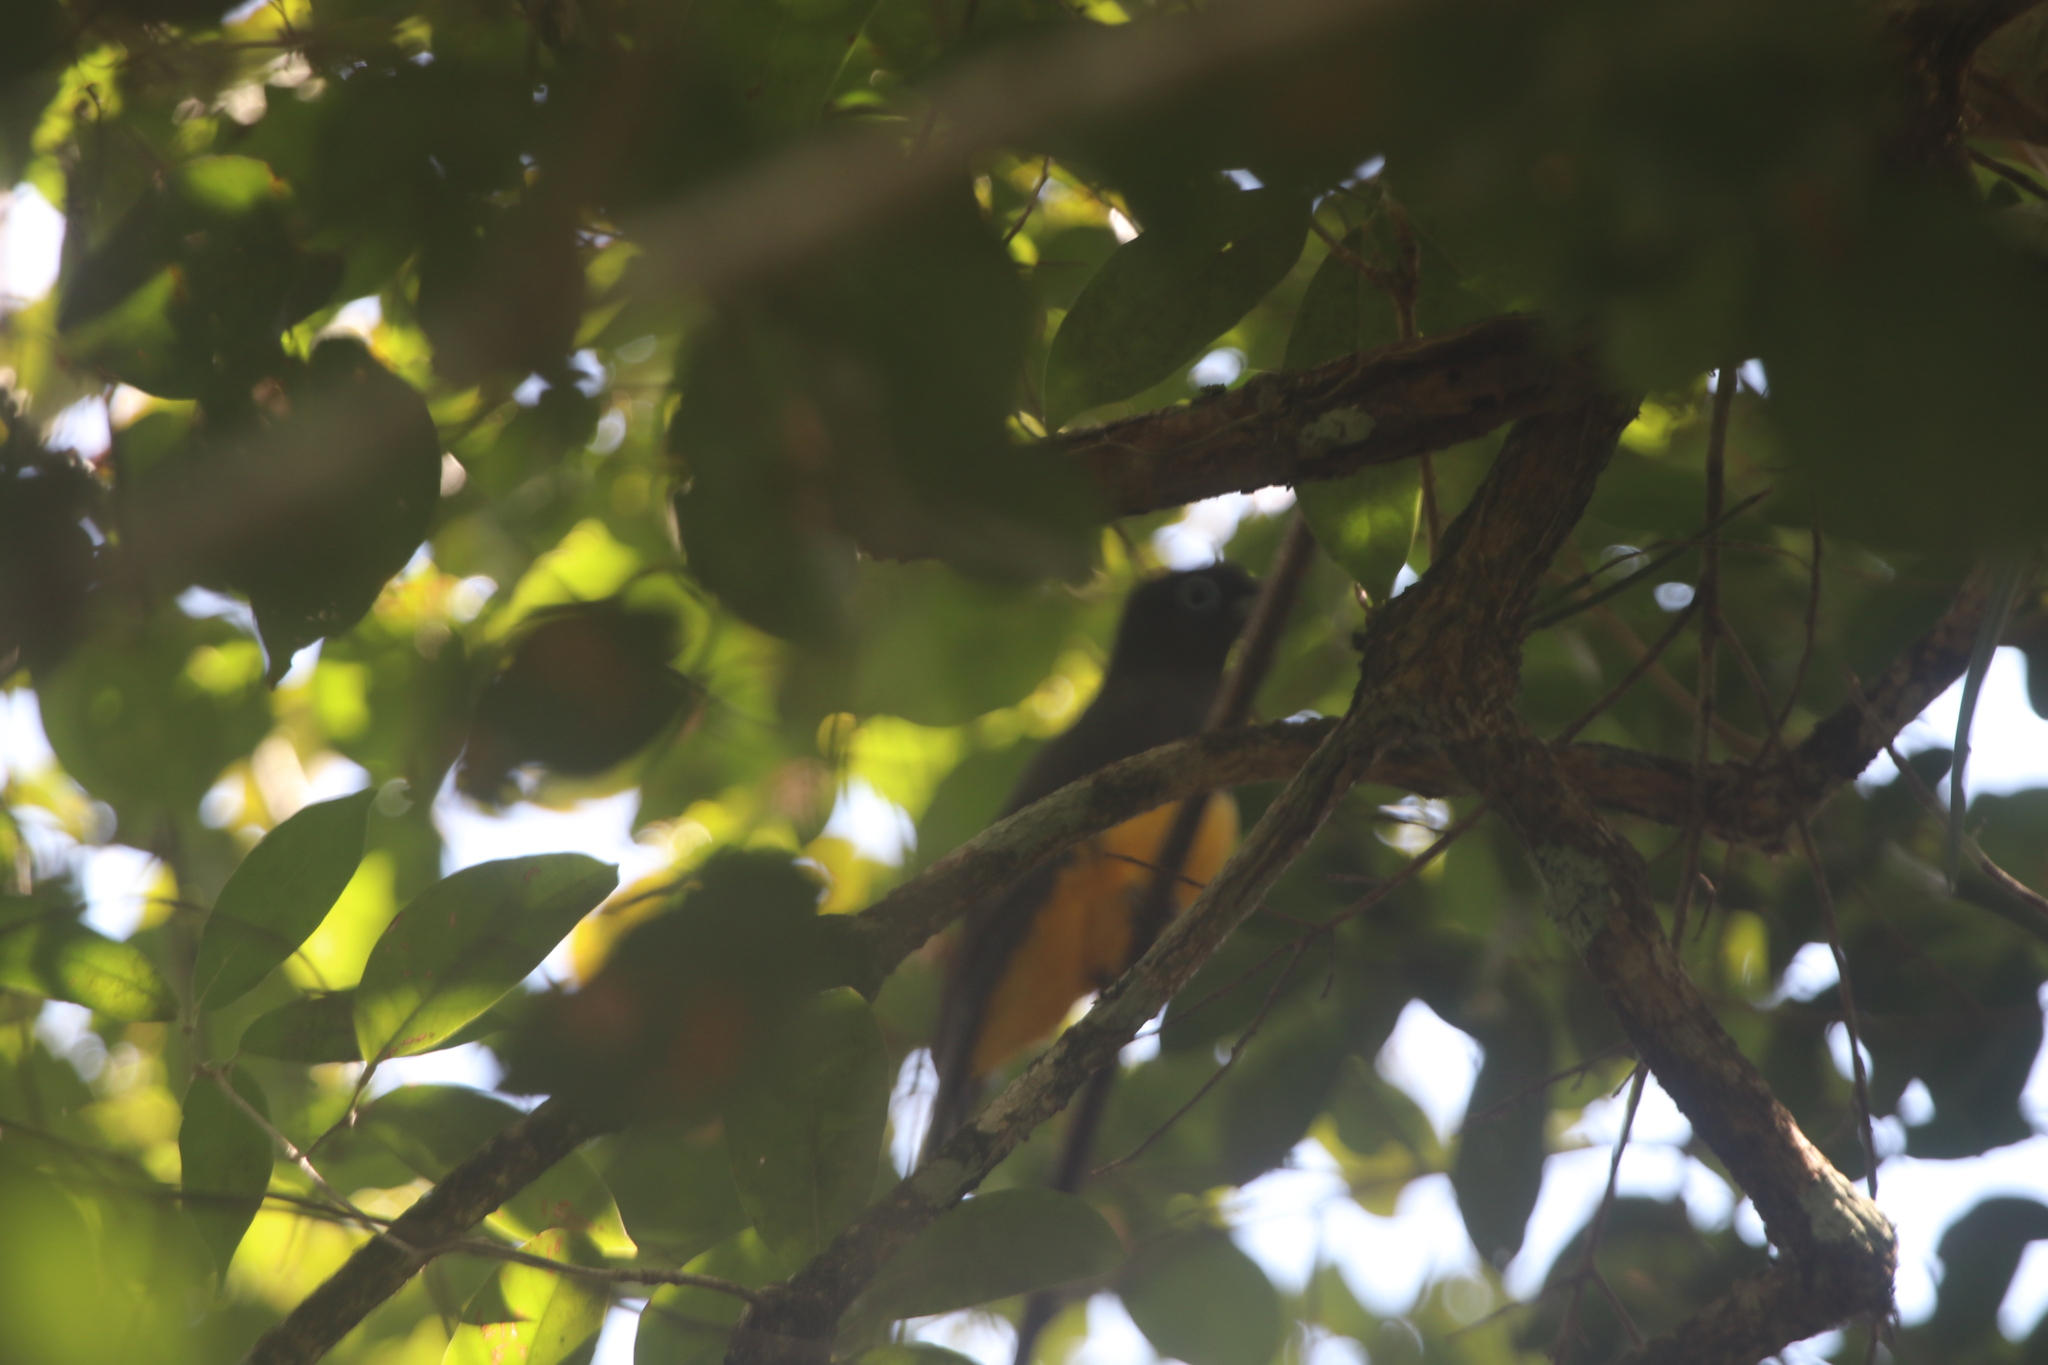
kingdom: Animalia
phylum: Chordata
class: Aves
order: Trogoniformes
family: Trogonidae
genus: Trogon
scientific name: Trogon melanocephalus
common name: Black-headed trogon
